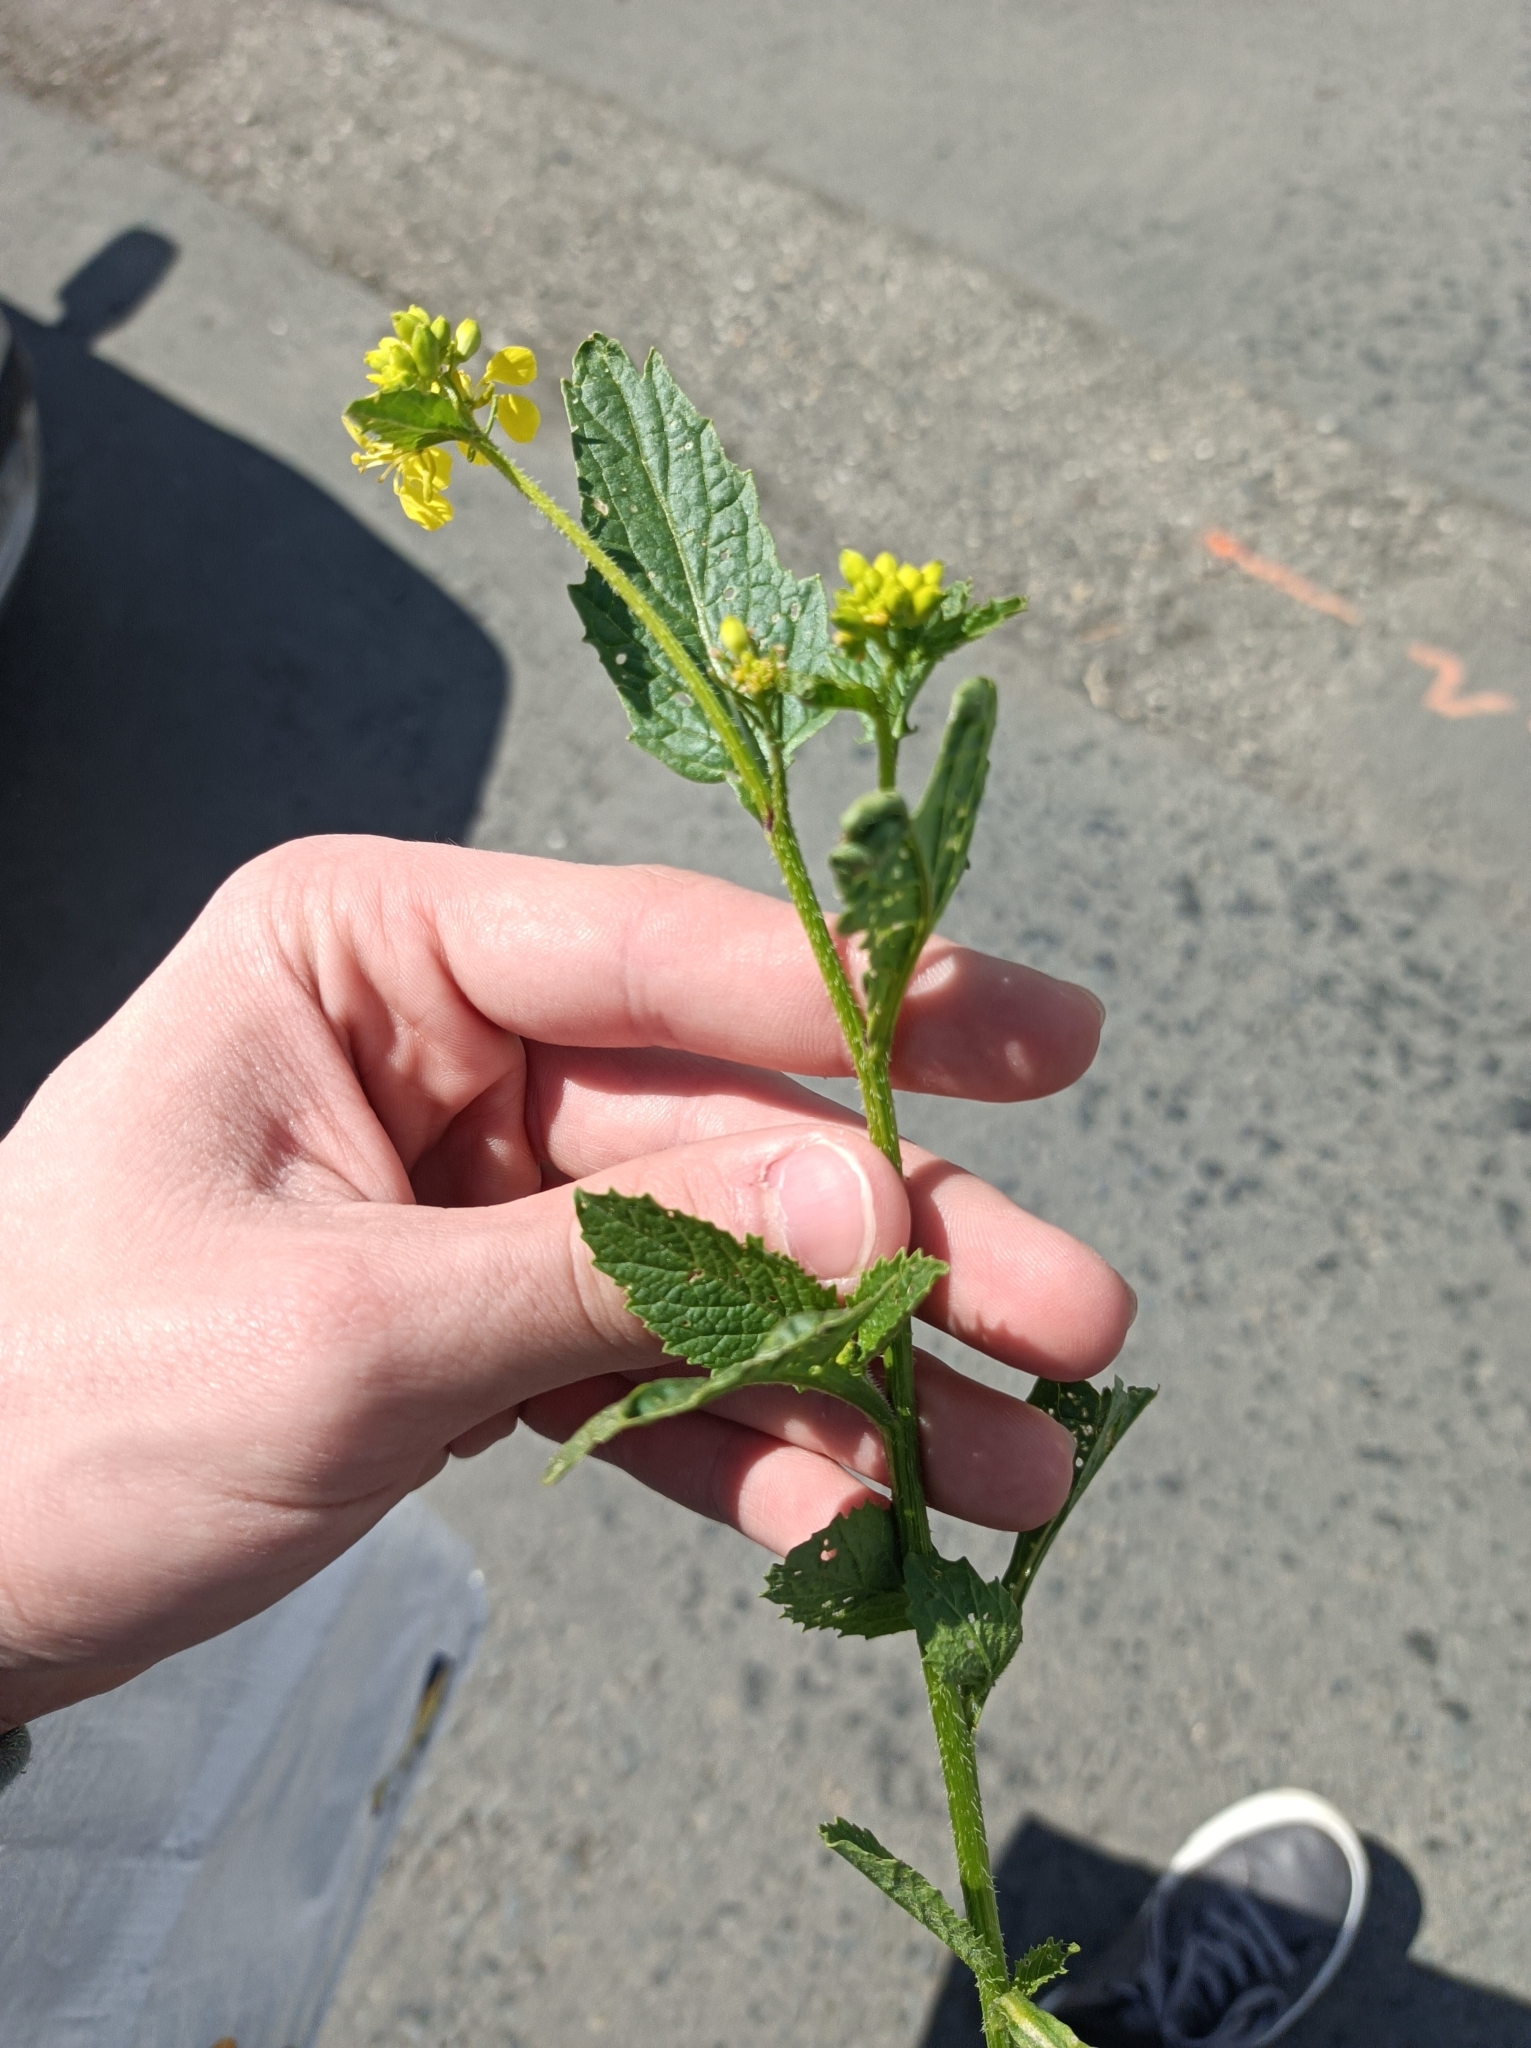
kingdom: Plantae
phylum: Tracheophyta
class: Magnoliopsida
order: Brassicales
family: Brassicaceae
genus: Sinapis
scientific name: Sinapis arvensis
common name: Charlock
